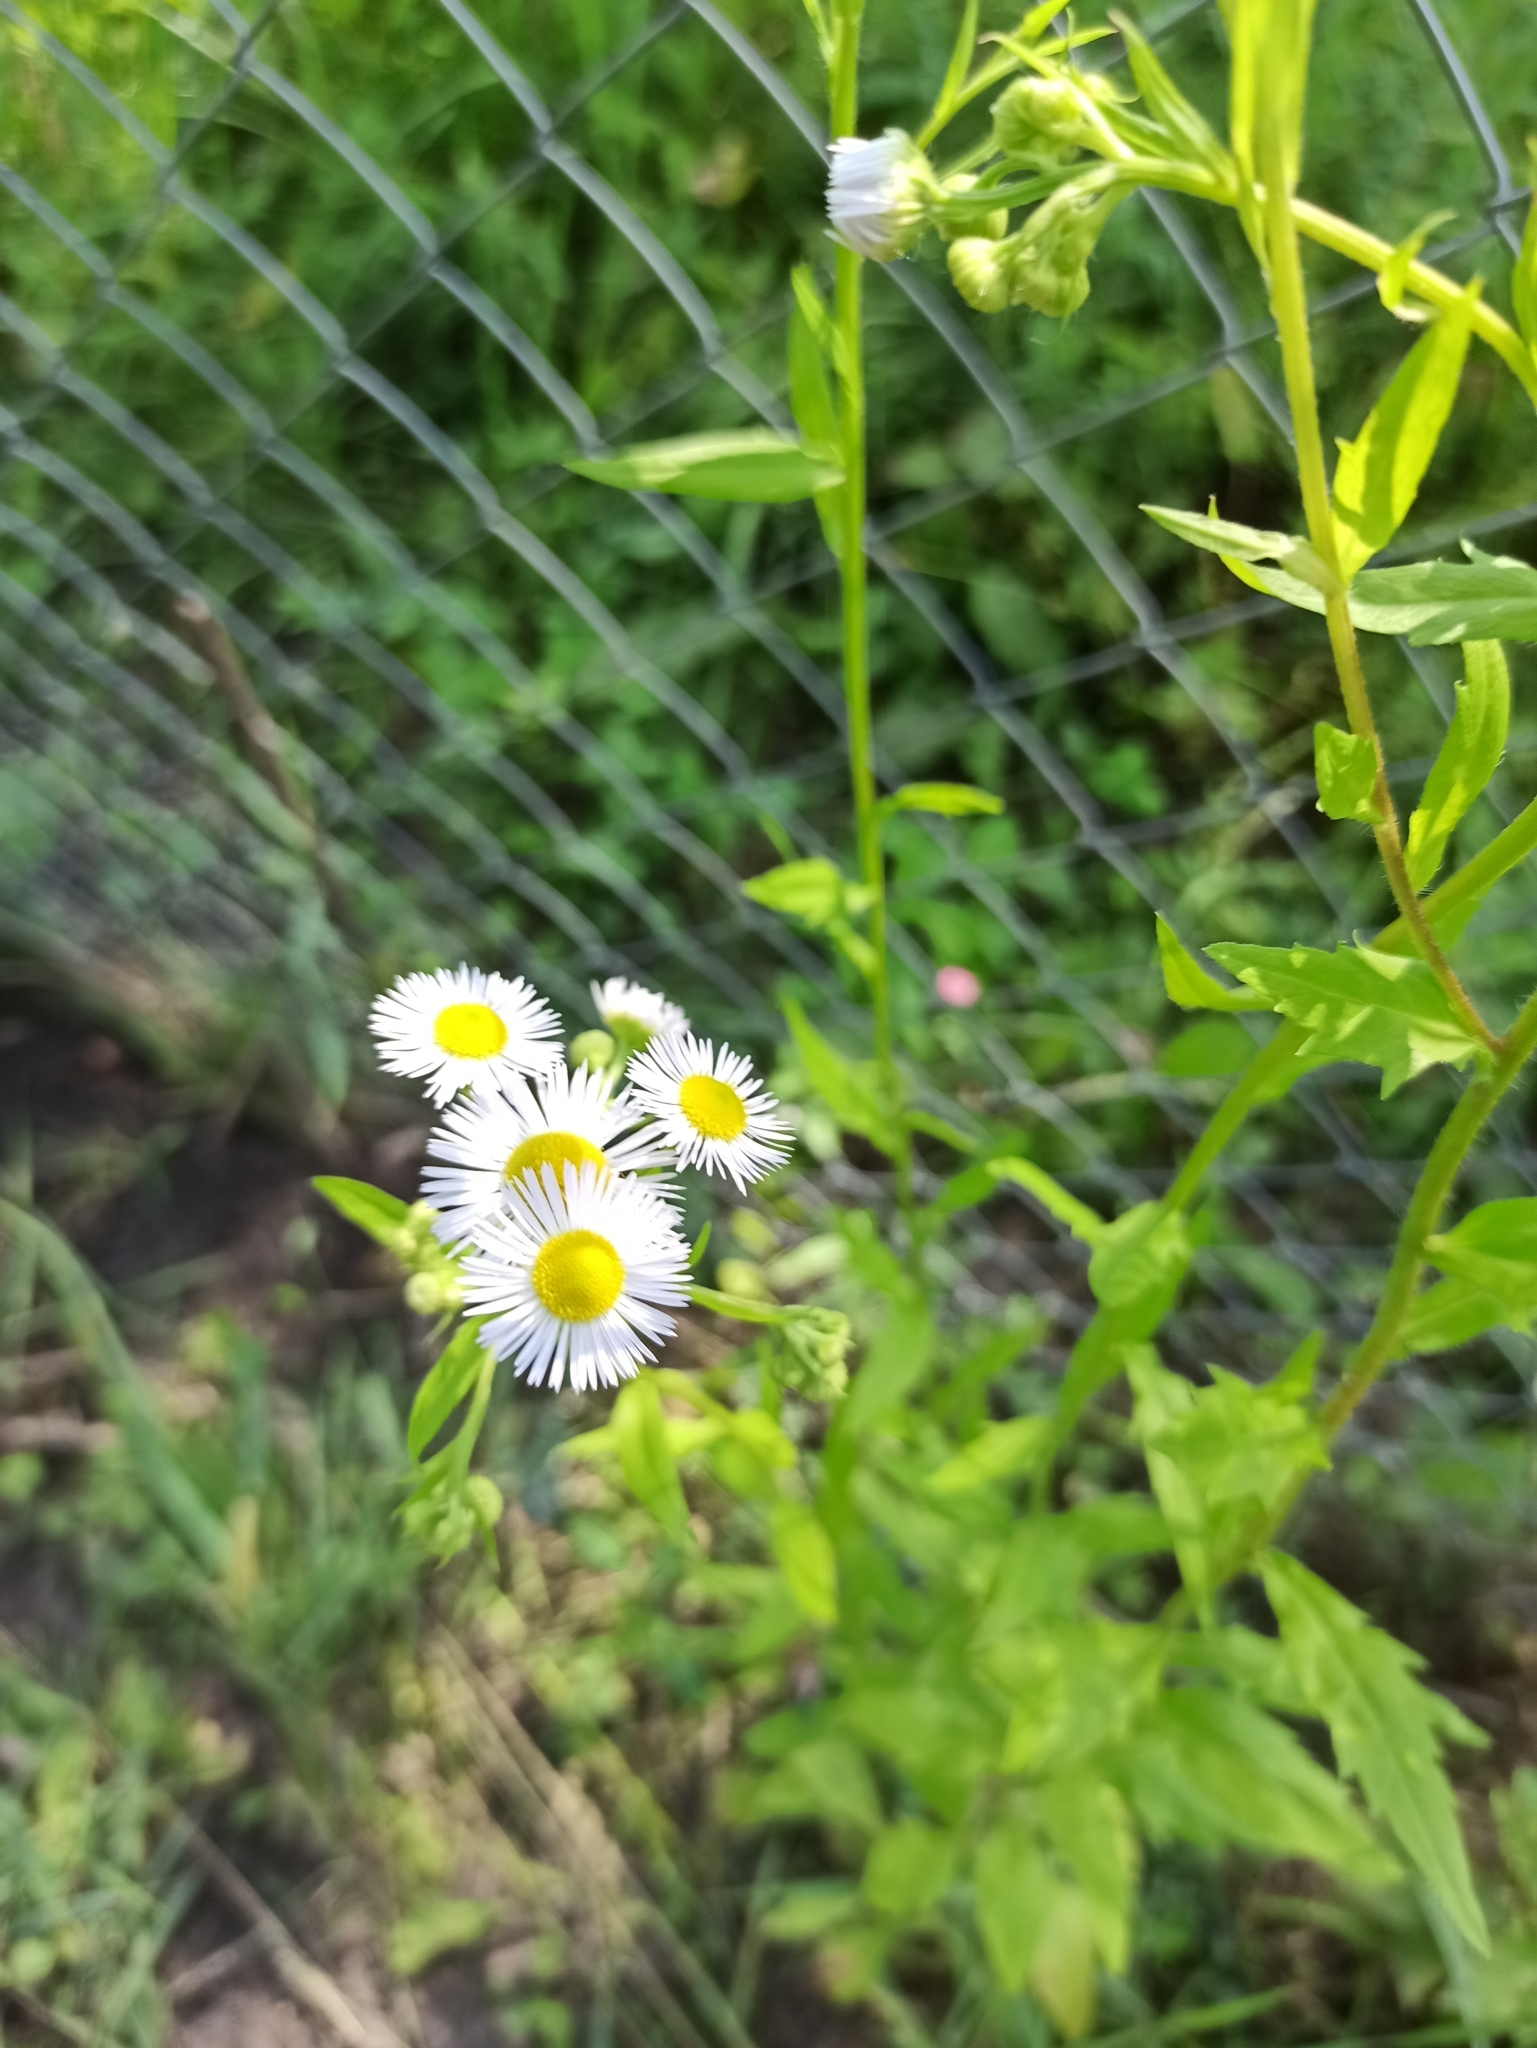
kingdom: Plantae
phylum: Tracheophyta
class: Magnoliopsida
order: Asterales
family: Asteraceae
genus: Erigeron
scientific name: Erigeron annuus
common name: Tall fleabane
